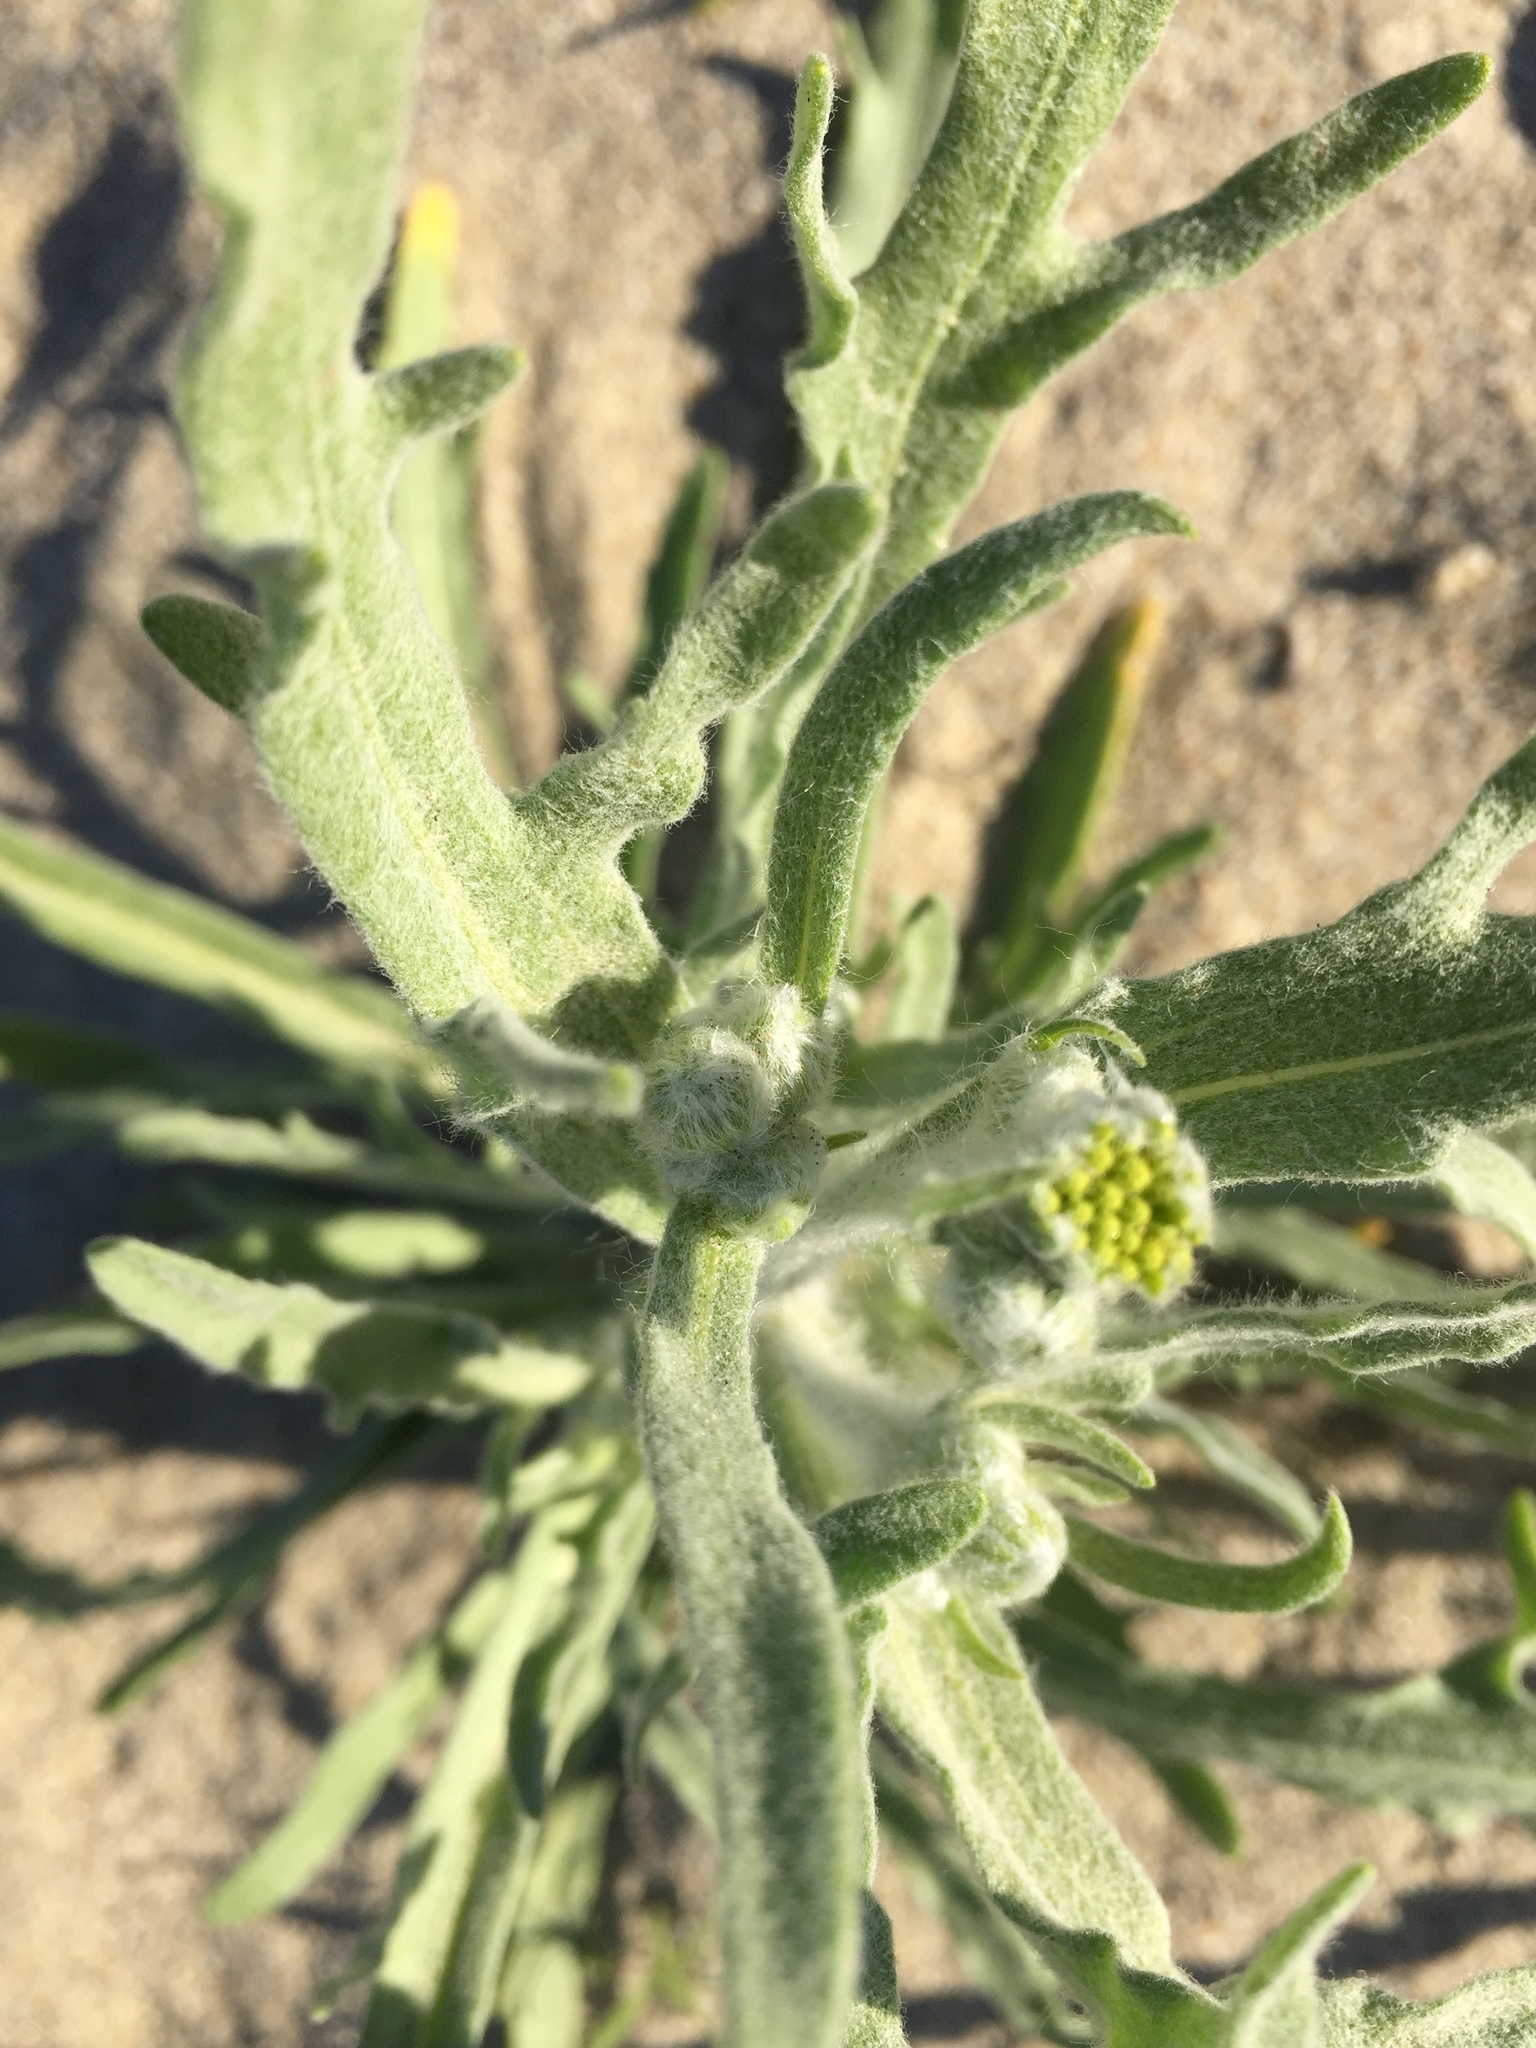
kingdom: Plantae
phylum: Tracheophyta
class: Magnoliopsida
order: Asterales
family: Asteraceae
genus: Baileya
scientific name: Baileya pauciradiata
